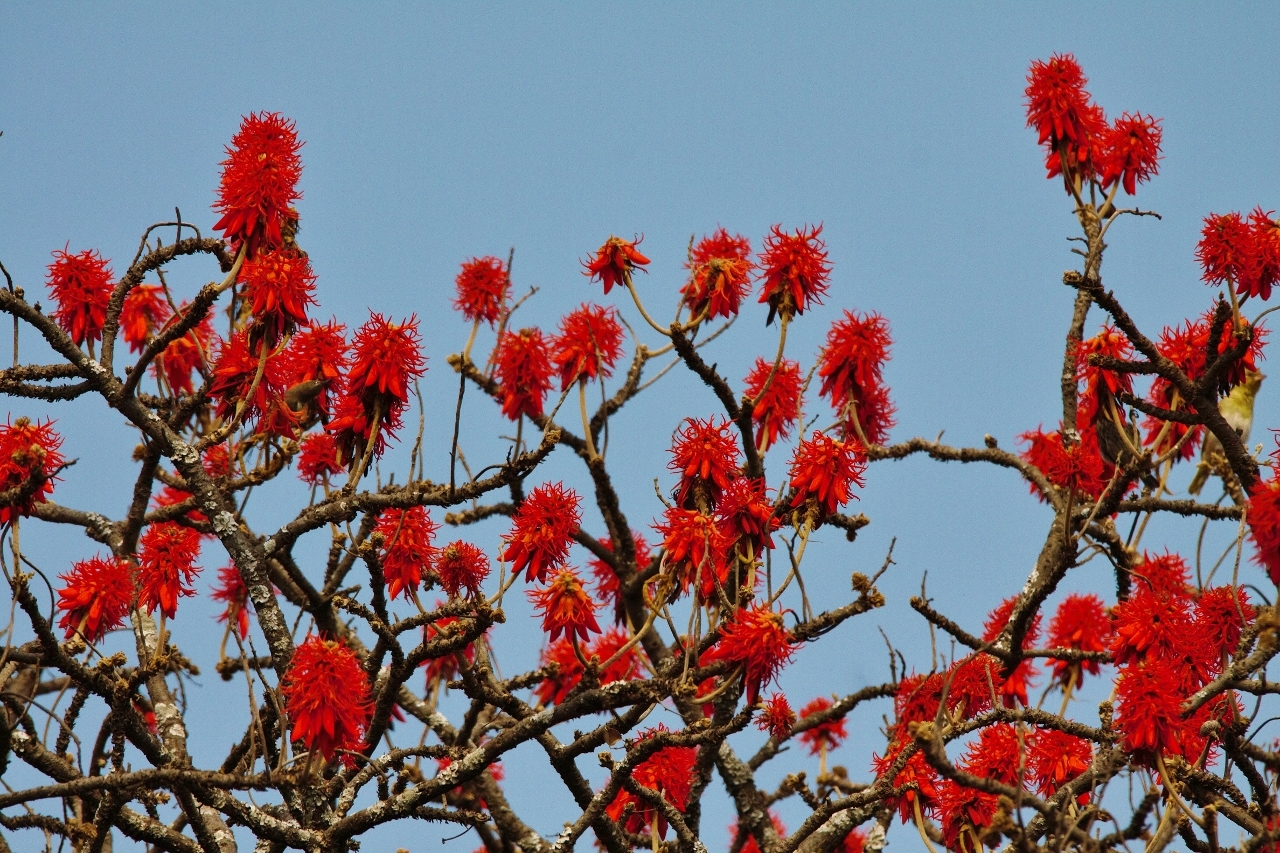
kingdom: Plantae
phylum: Tracheophyta
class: Magnoliopsida
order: Fabales
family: Fabaceae
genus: Erythrina
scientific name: Erythrina abyssinica
